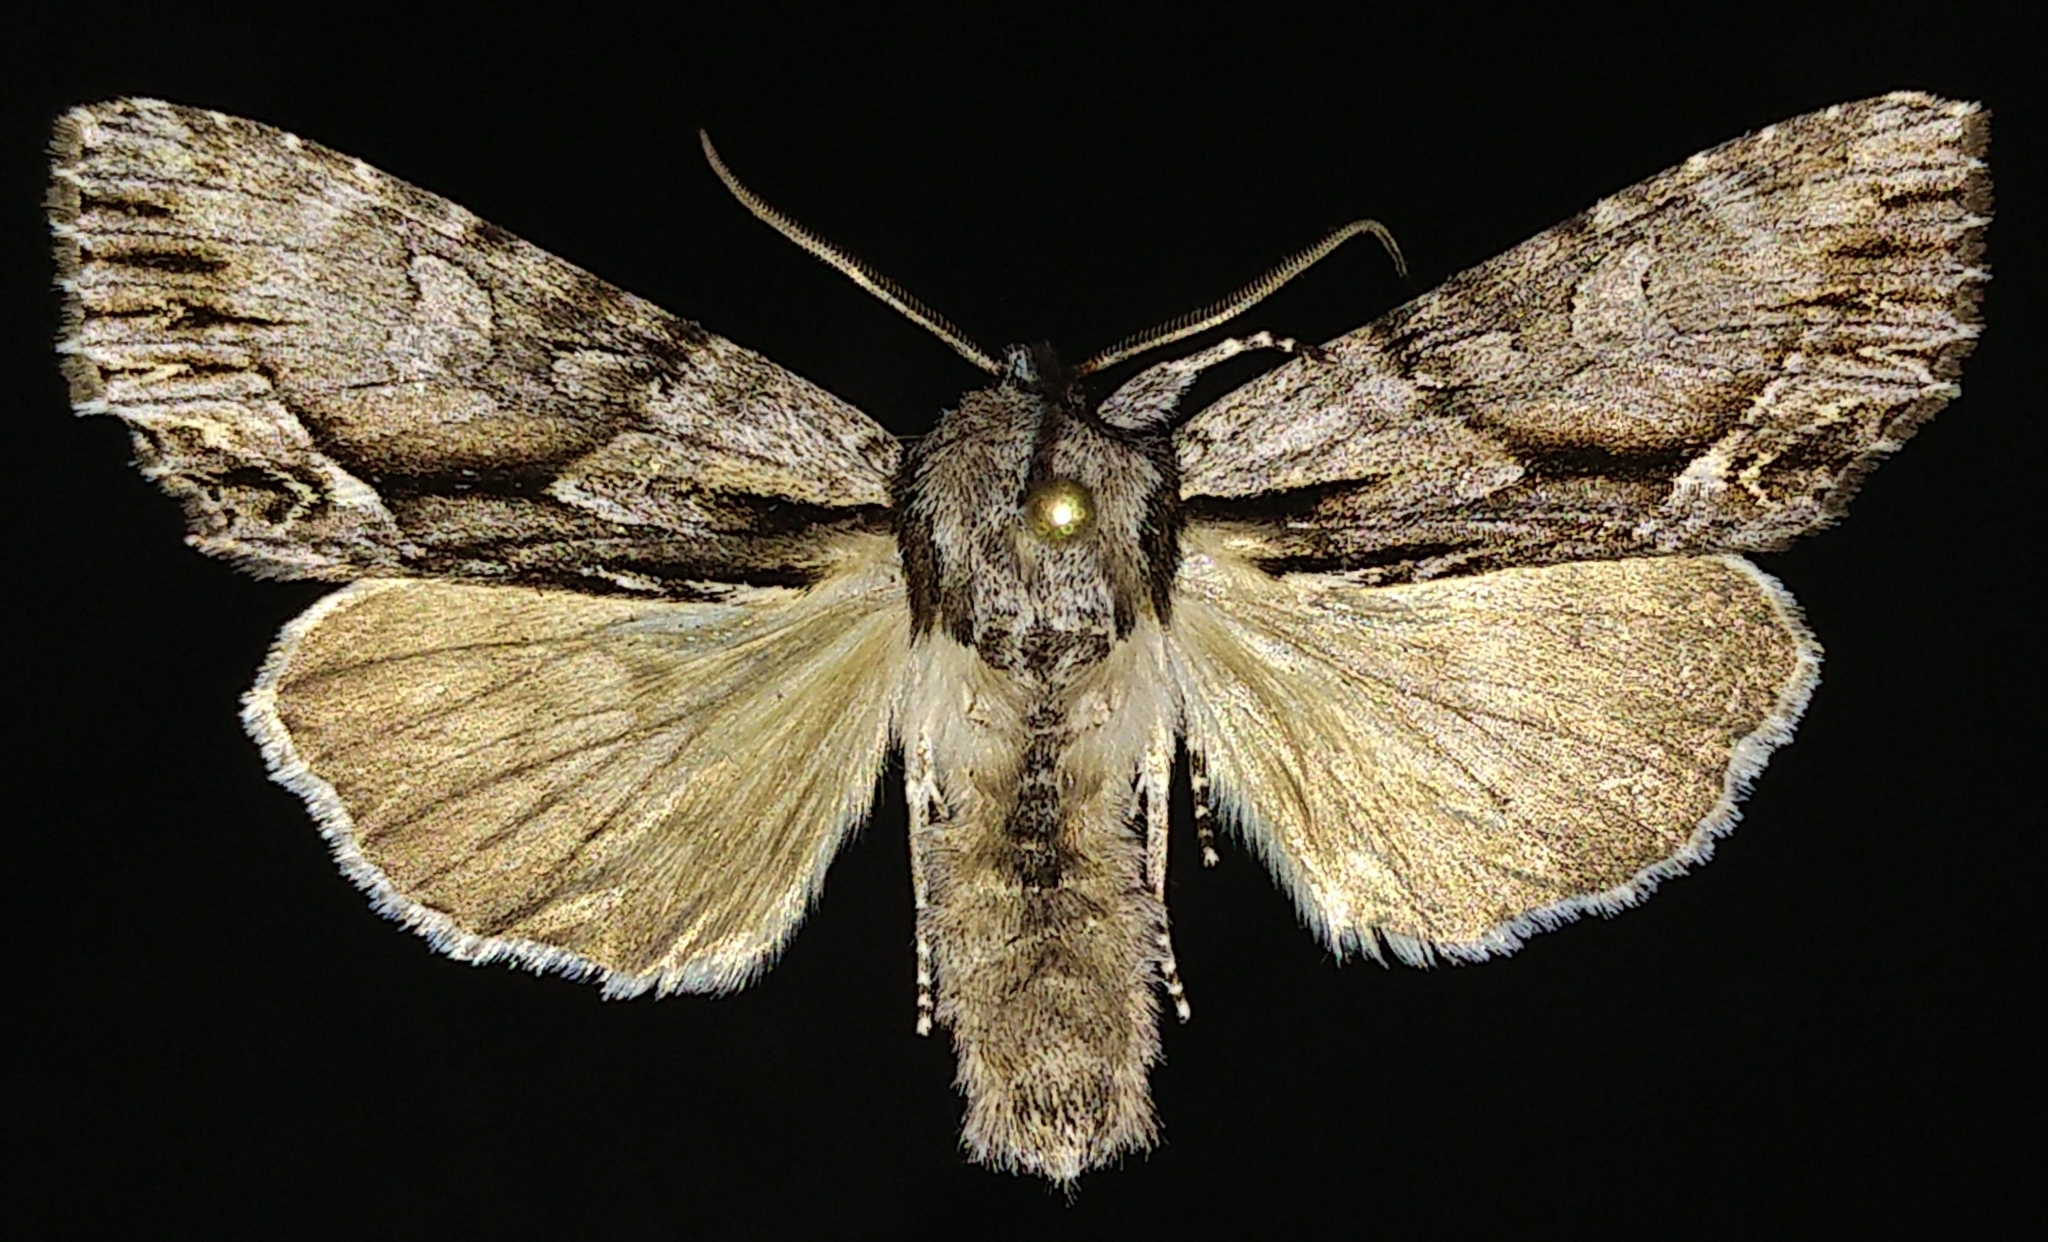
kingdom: Animalia
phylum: Arthropoda
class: Insecta
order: Lepidoptera
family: Noctuidae
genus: Hyppa
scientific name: Hyppa contrasta
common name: Summer hyppa moth
